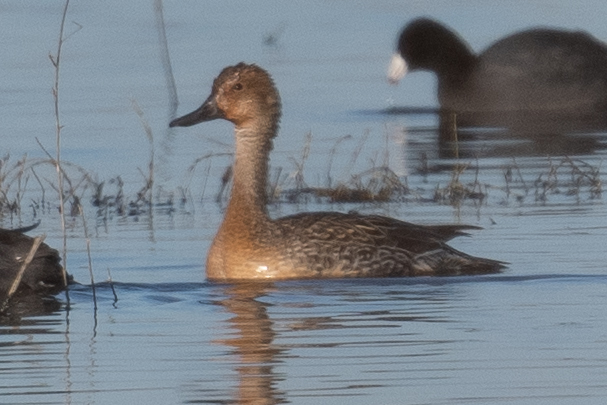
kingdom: Animalia
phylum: Chordata
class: Aves
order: Anseriformes
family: Anatidae
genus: Anas
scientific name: Anas acuta
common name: Northern pintail
